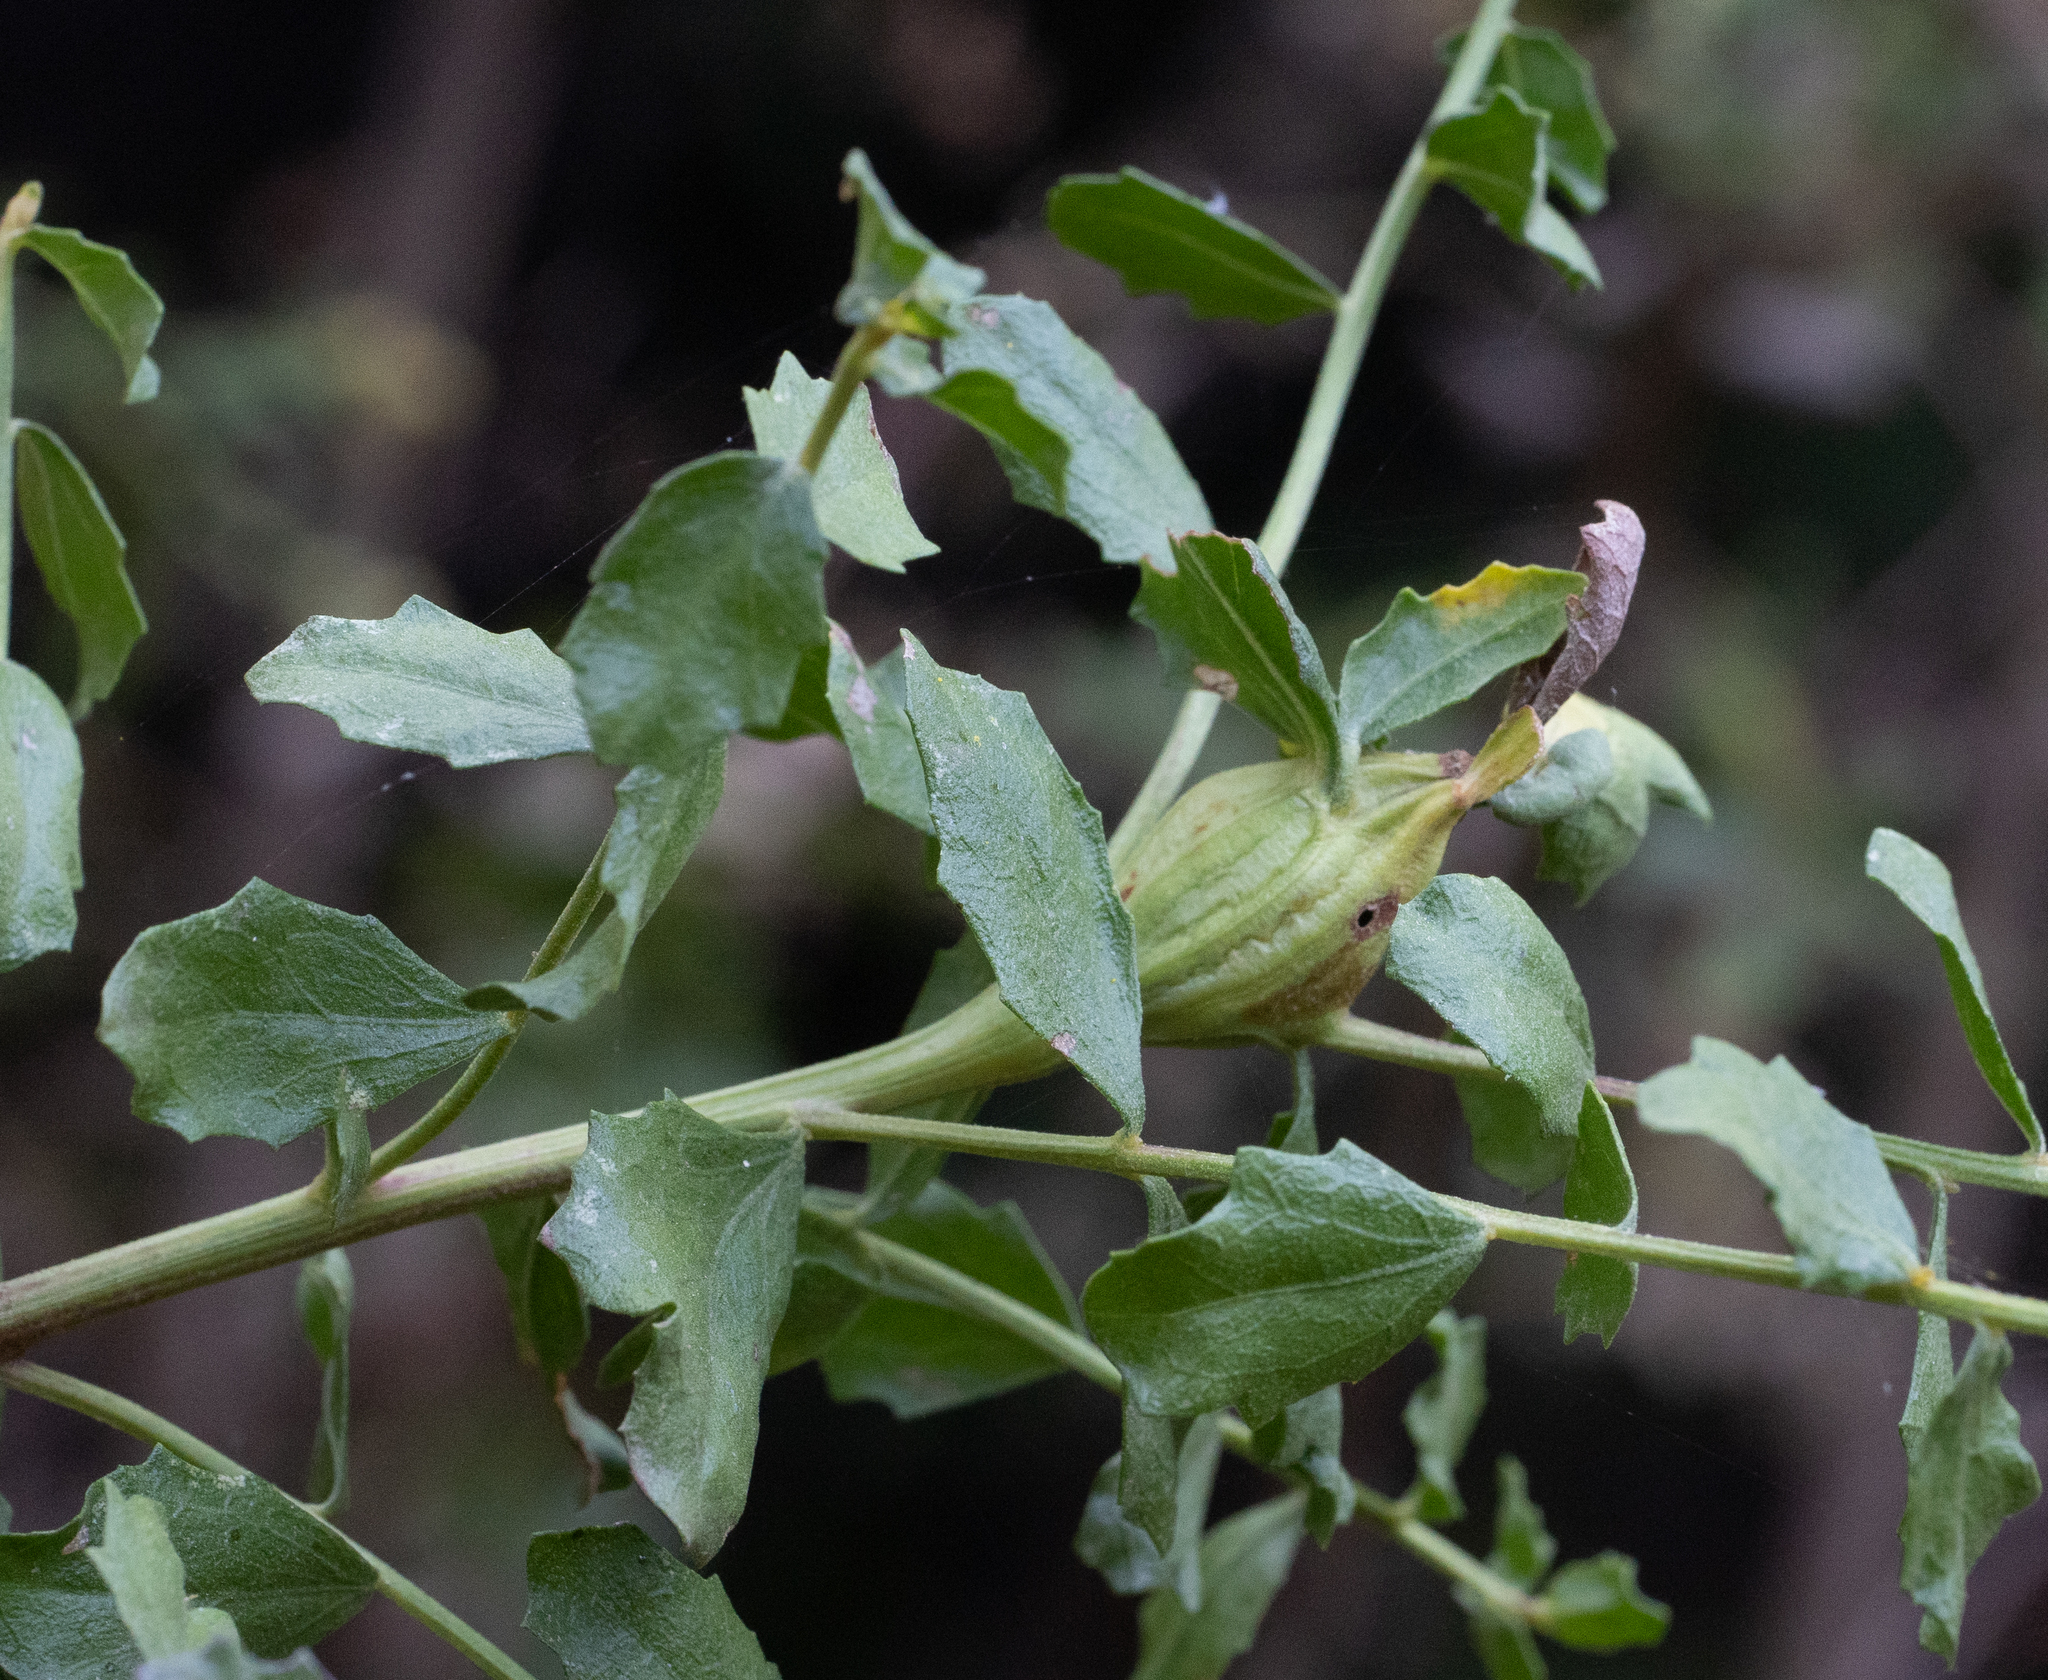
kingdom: Animalia
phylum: Arthropoda
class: Insecta
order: Lepidoptera
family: Gelechiidae
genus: Gnorimoschema
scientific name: Gnorimoschema baccharisella
